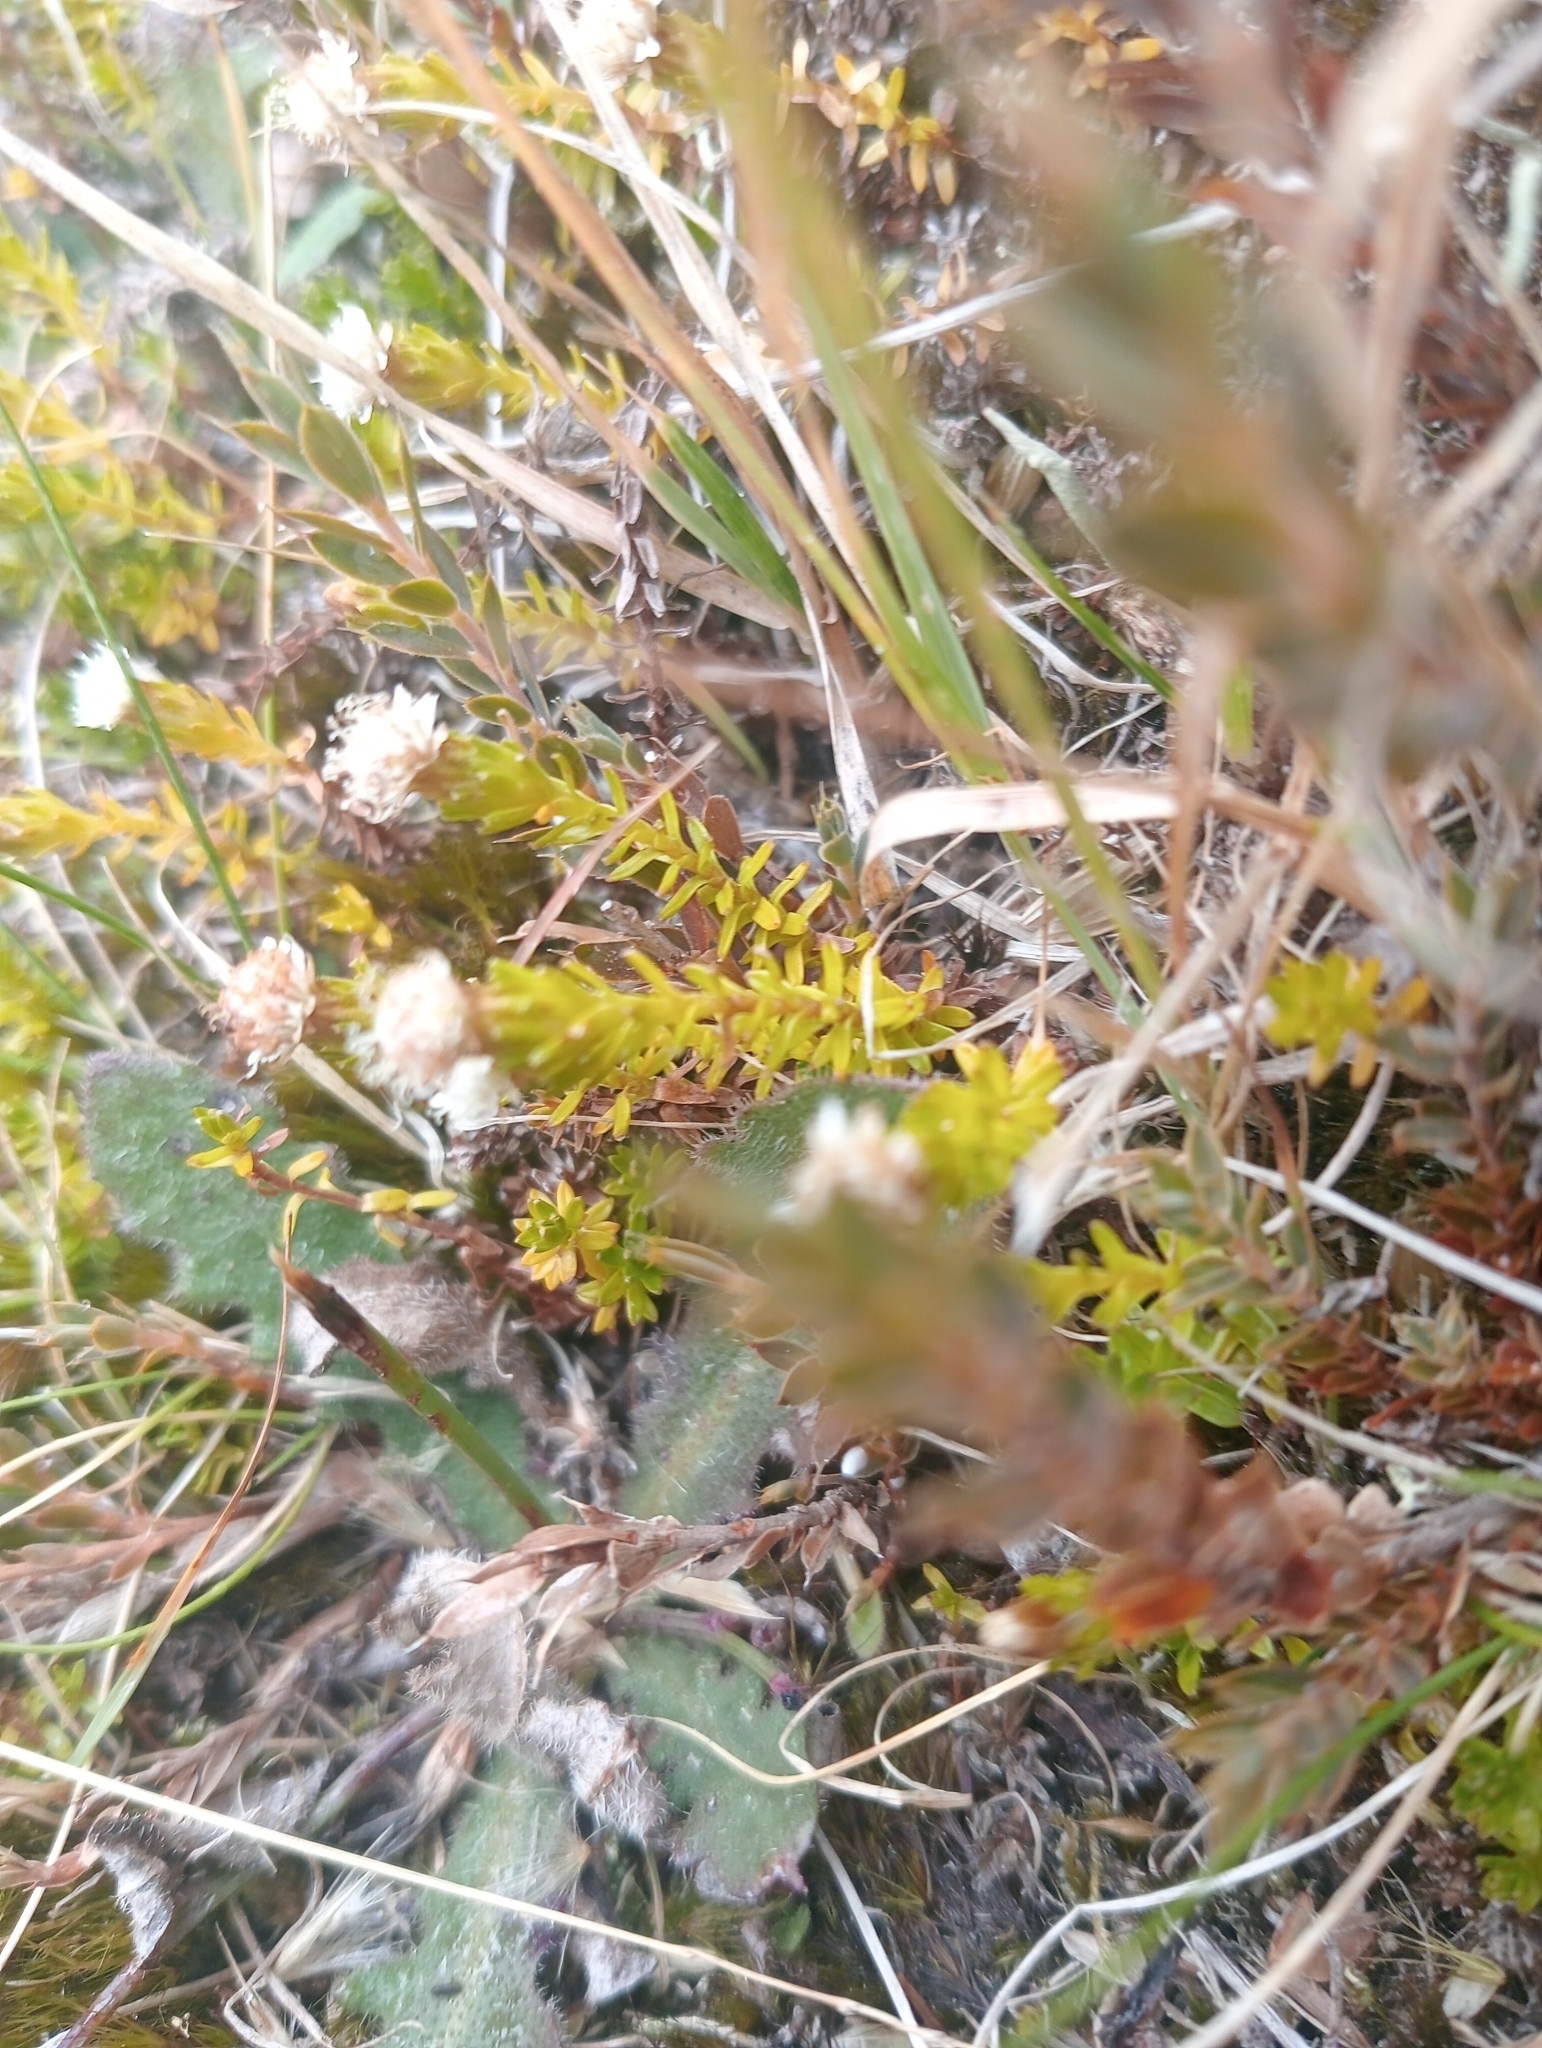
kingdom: Plantae
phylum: Tracheophyta
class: Magnoliopsida
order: Asterales
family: Asteraceae
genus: Raoulia
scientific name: Raoulia glabra
